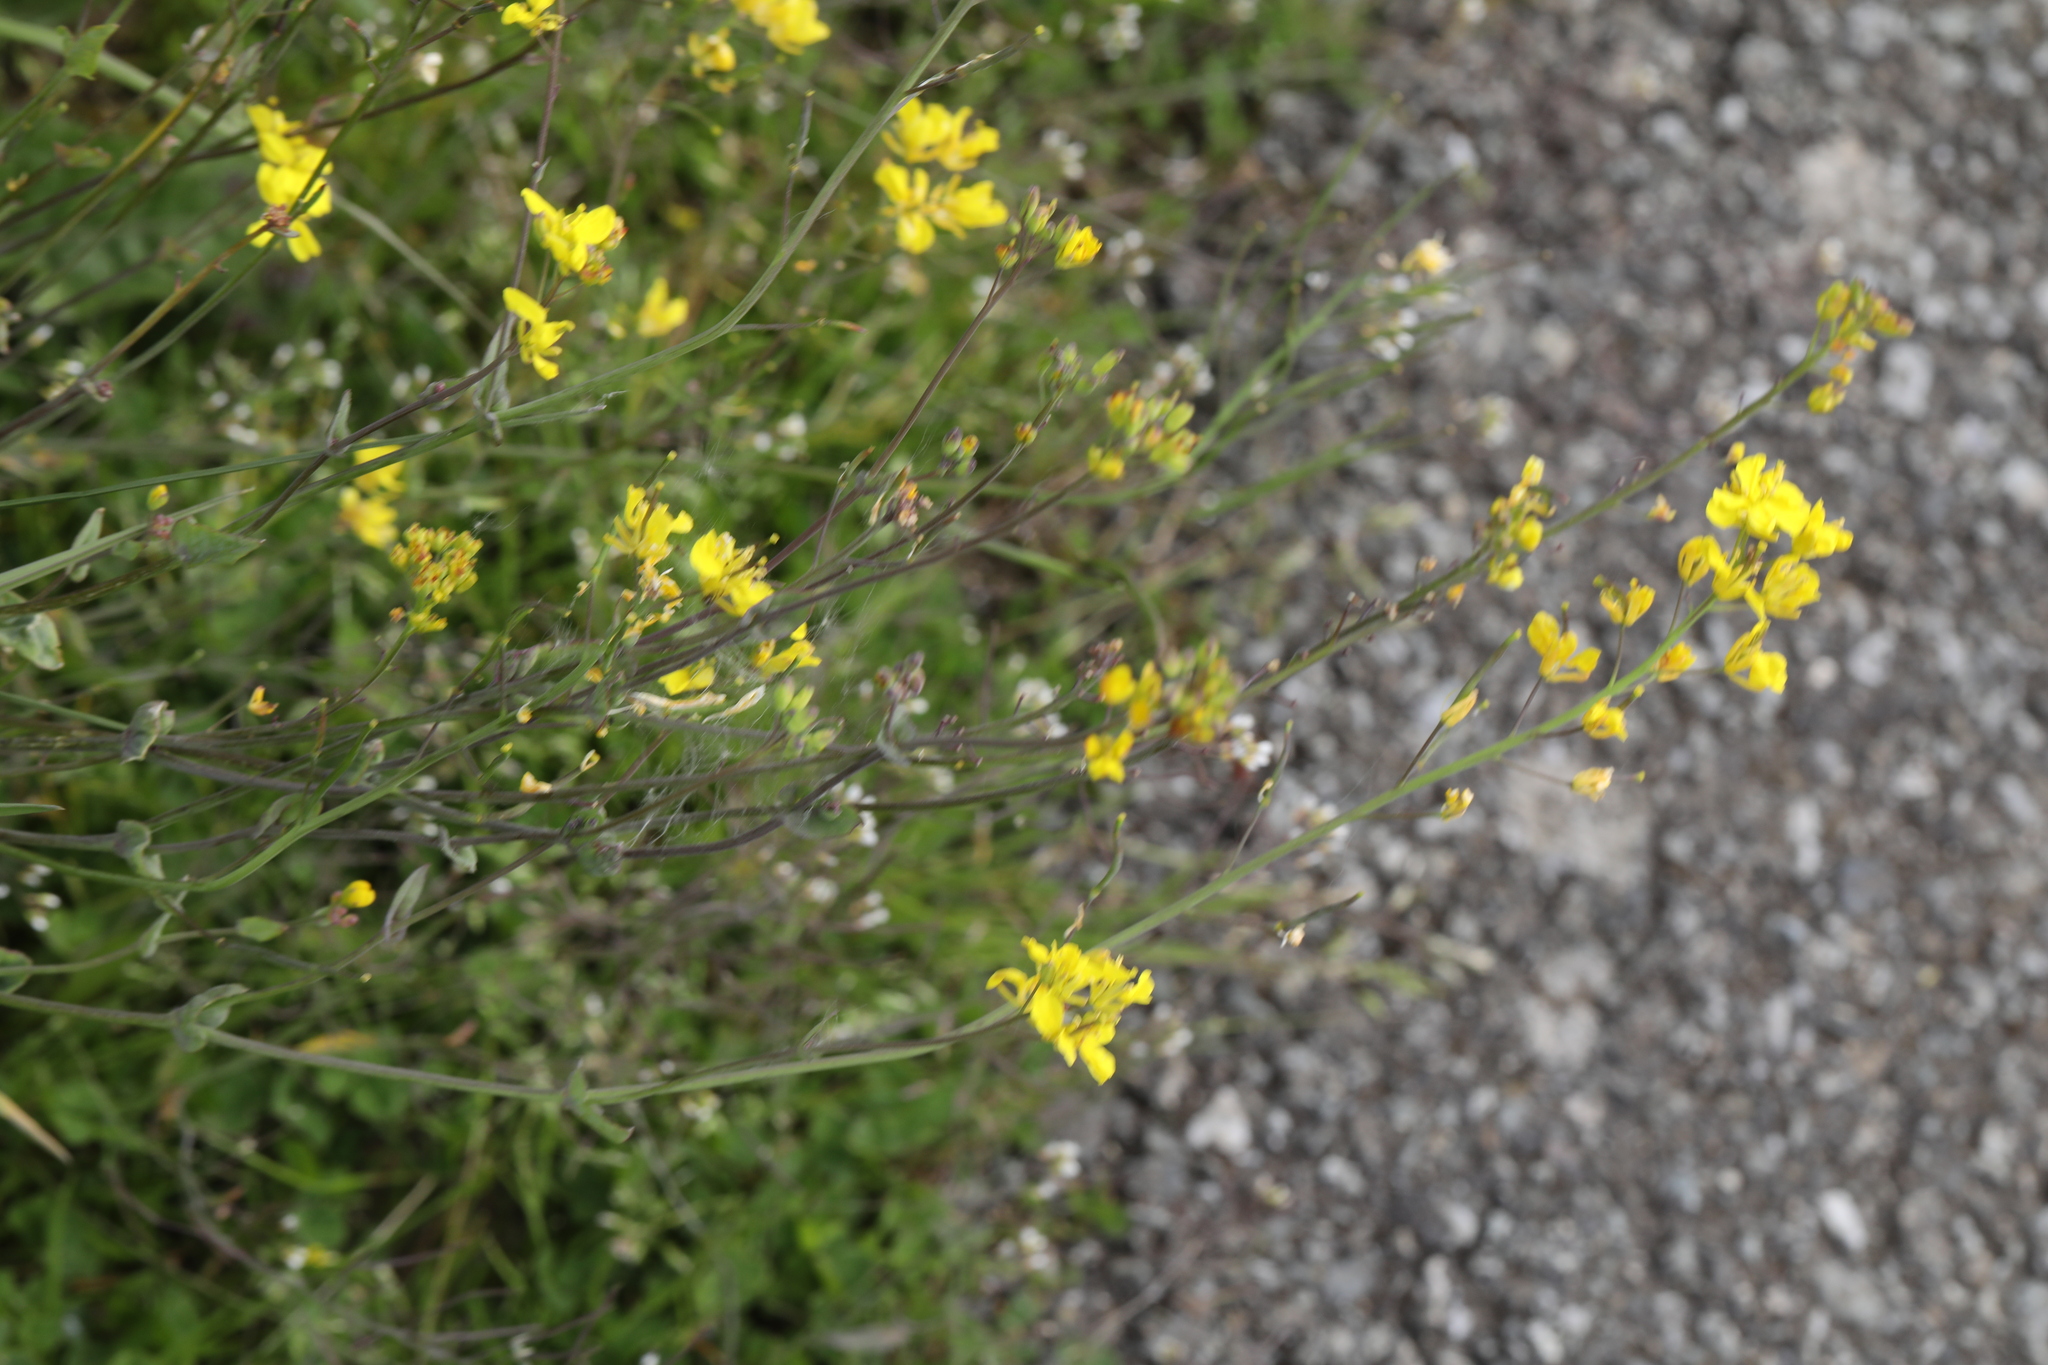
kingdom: Plantae
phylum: Tracheophyta
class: Magnoliopsida
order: Brassicales
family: Brassicaceae
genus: Brassica
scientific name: Brassica rapa
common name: Field mustard
